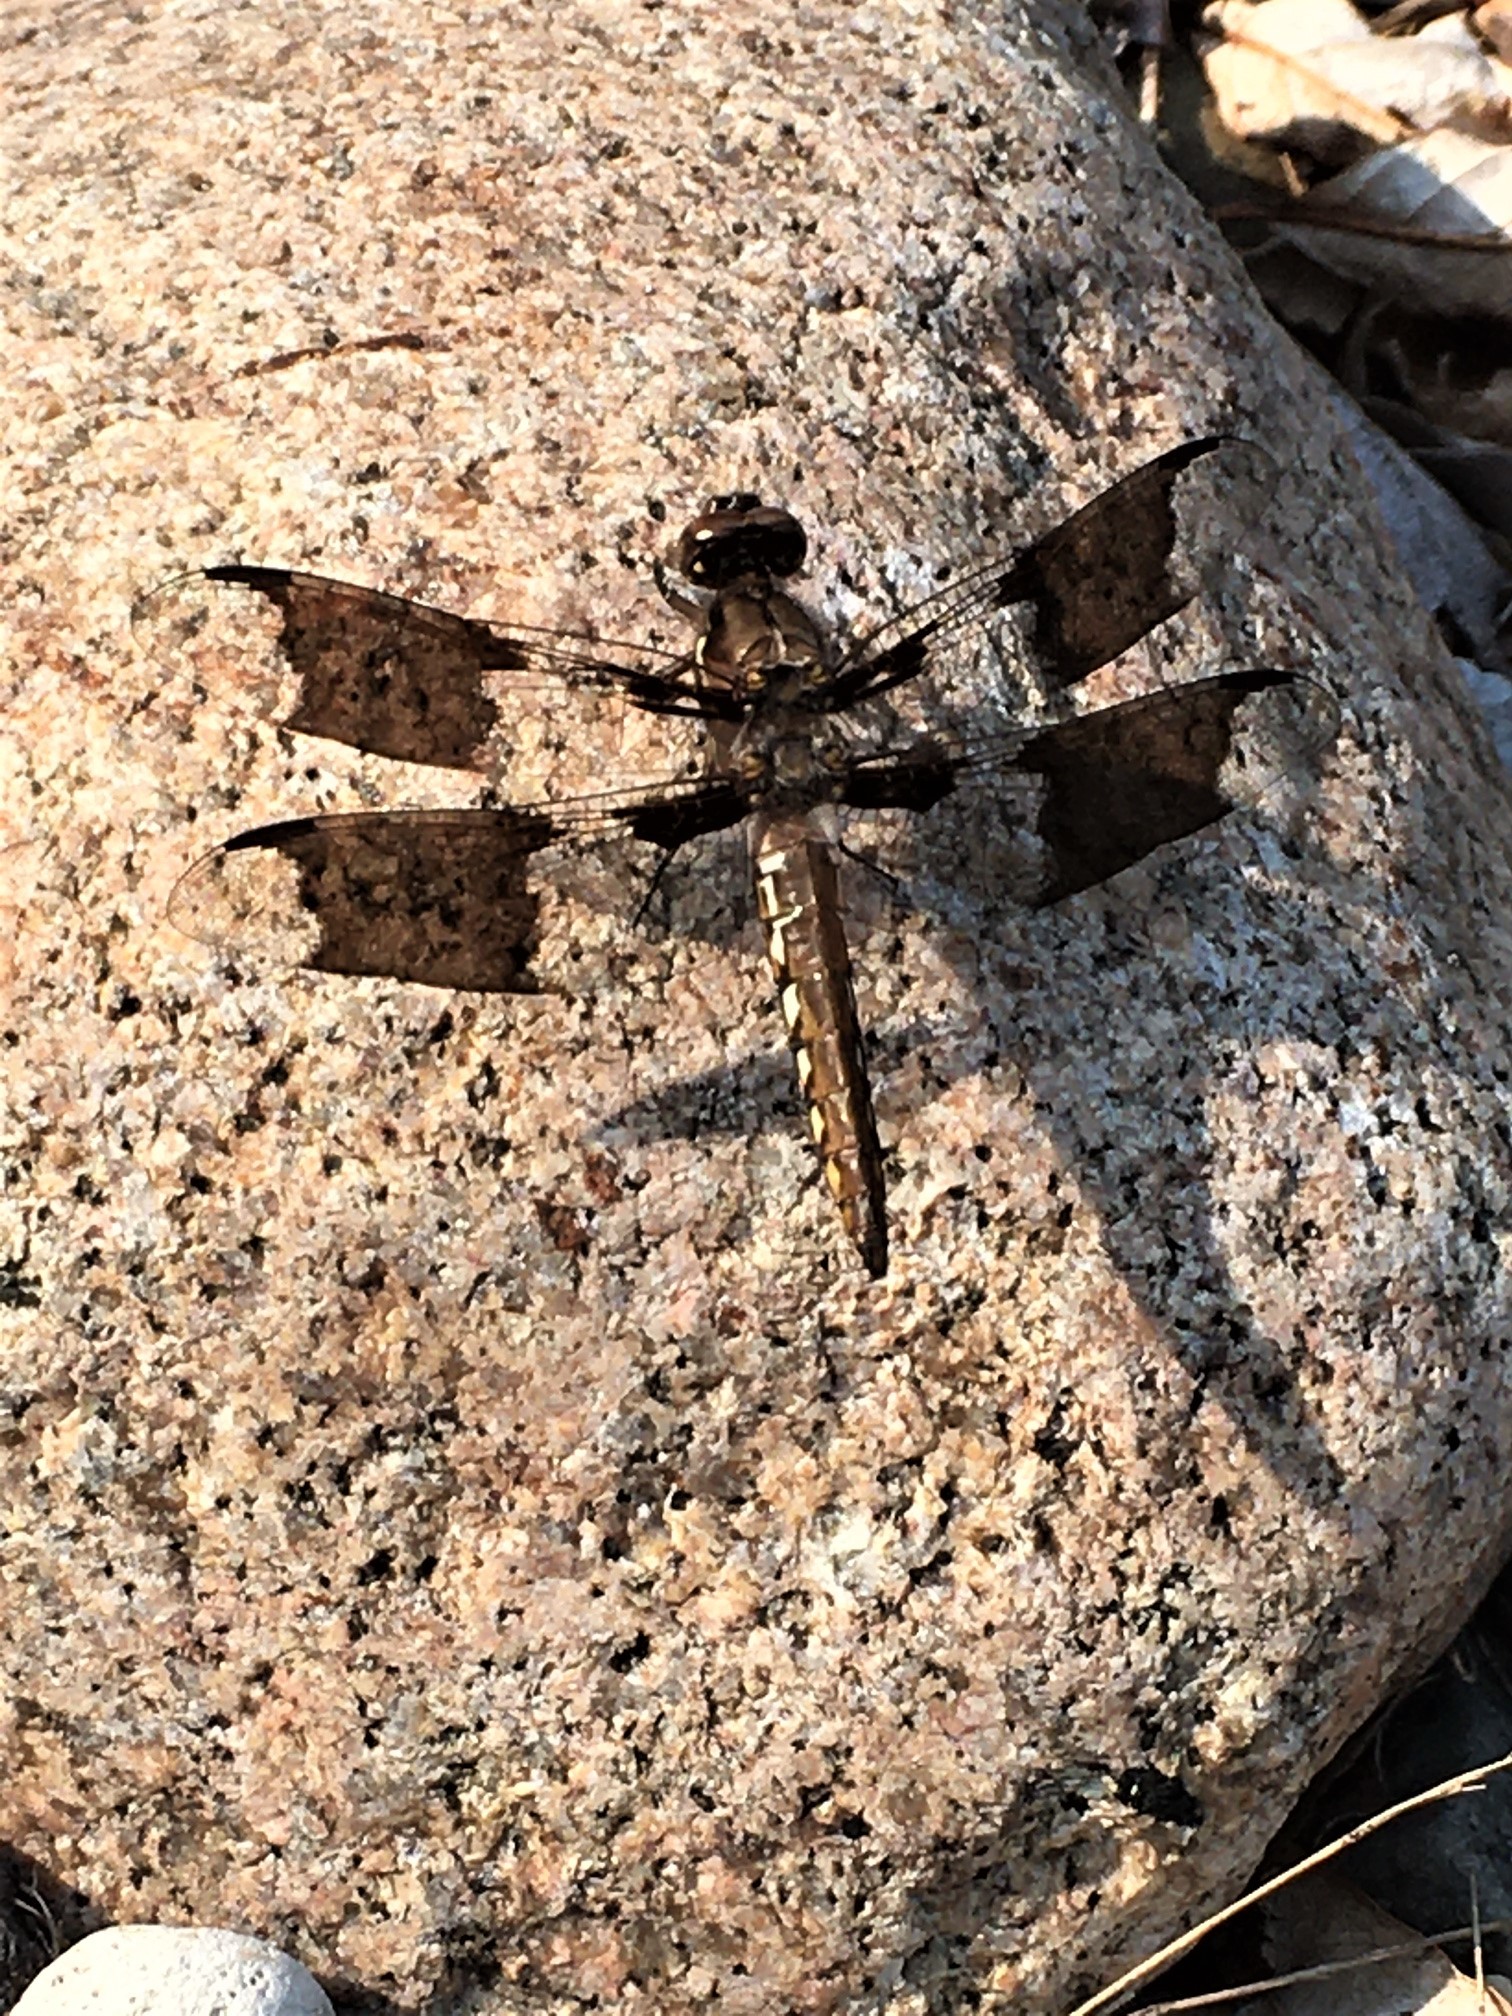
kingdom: Animalia
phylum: Arthropoda
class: Insecta
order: Odonata
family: Libellulidae
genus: Plathemis
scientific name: Plathemis lydia
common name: Common whitetail
